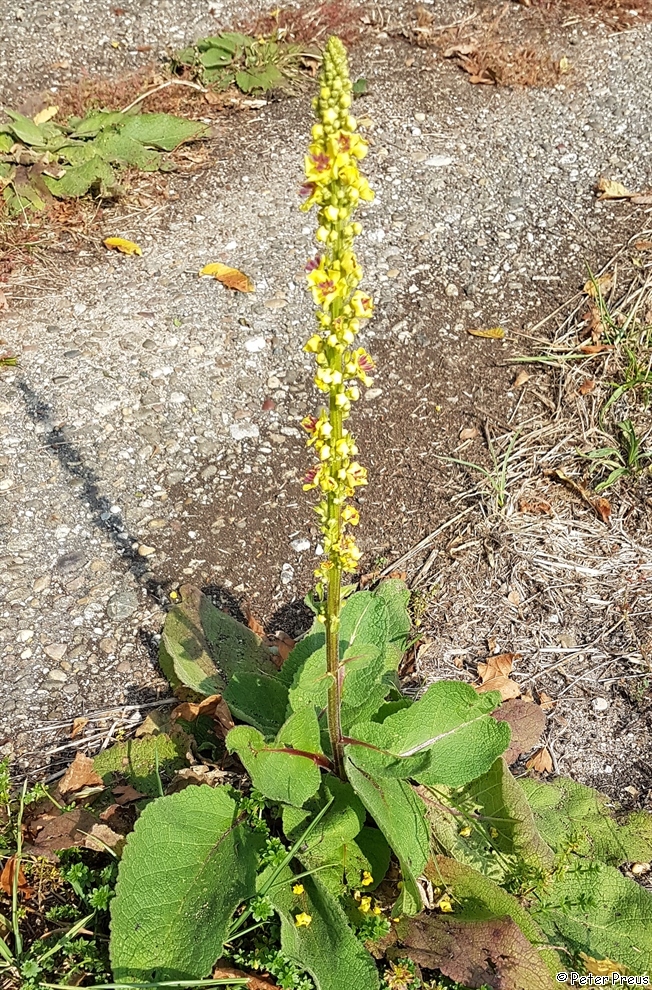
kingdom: Plantae
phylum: Tracheophyta
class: Magnoliopsida
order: Lamiales
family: Scrophulariaceae
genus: Verbascum
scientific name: Verbascum nigrum
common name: Dark mullein
